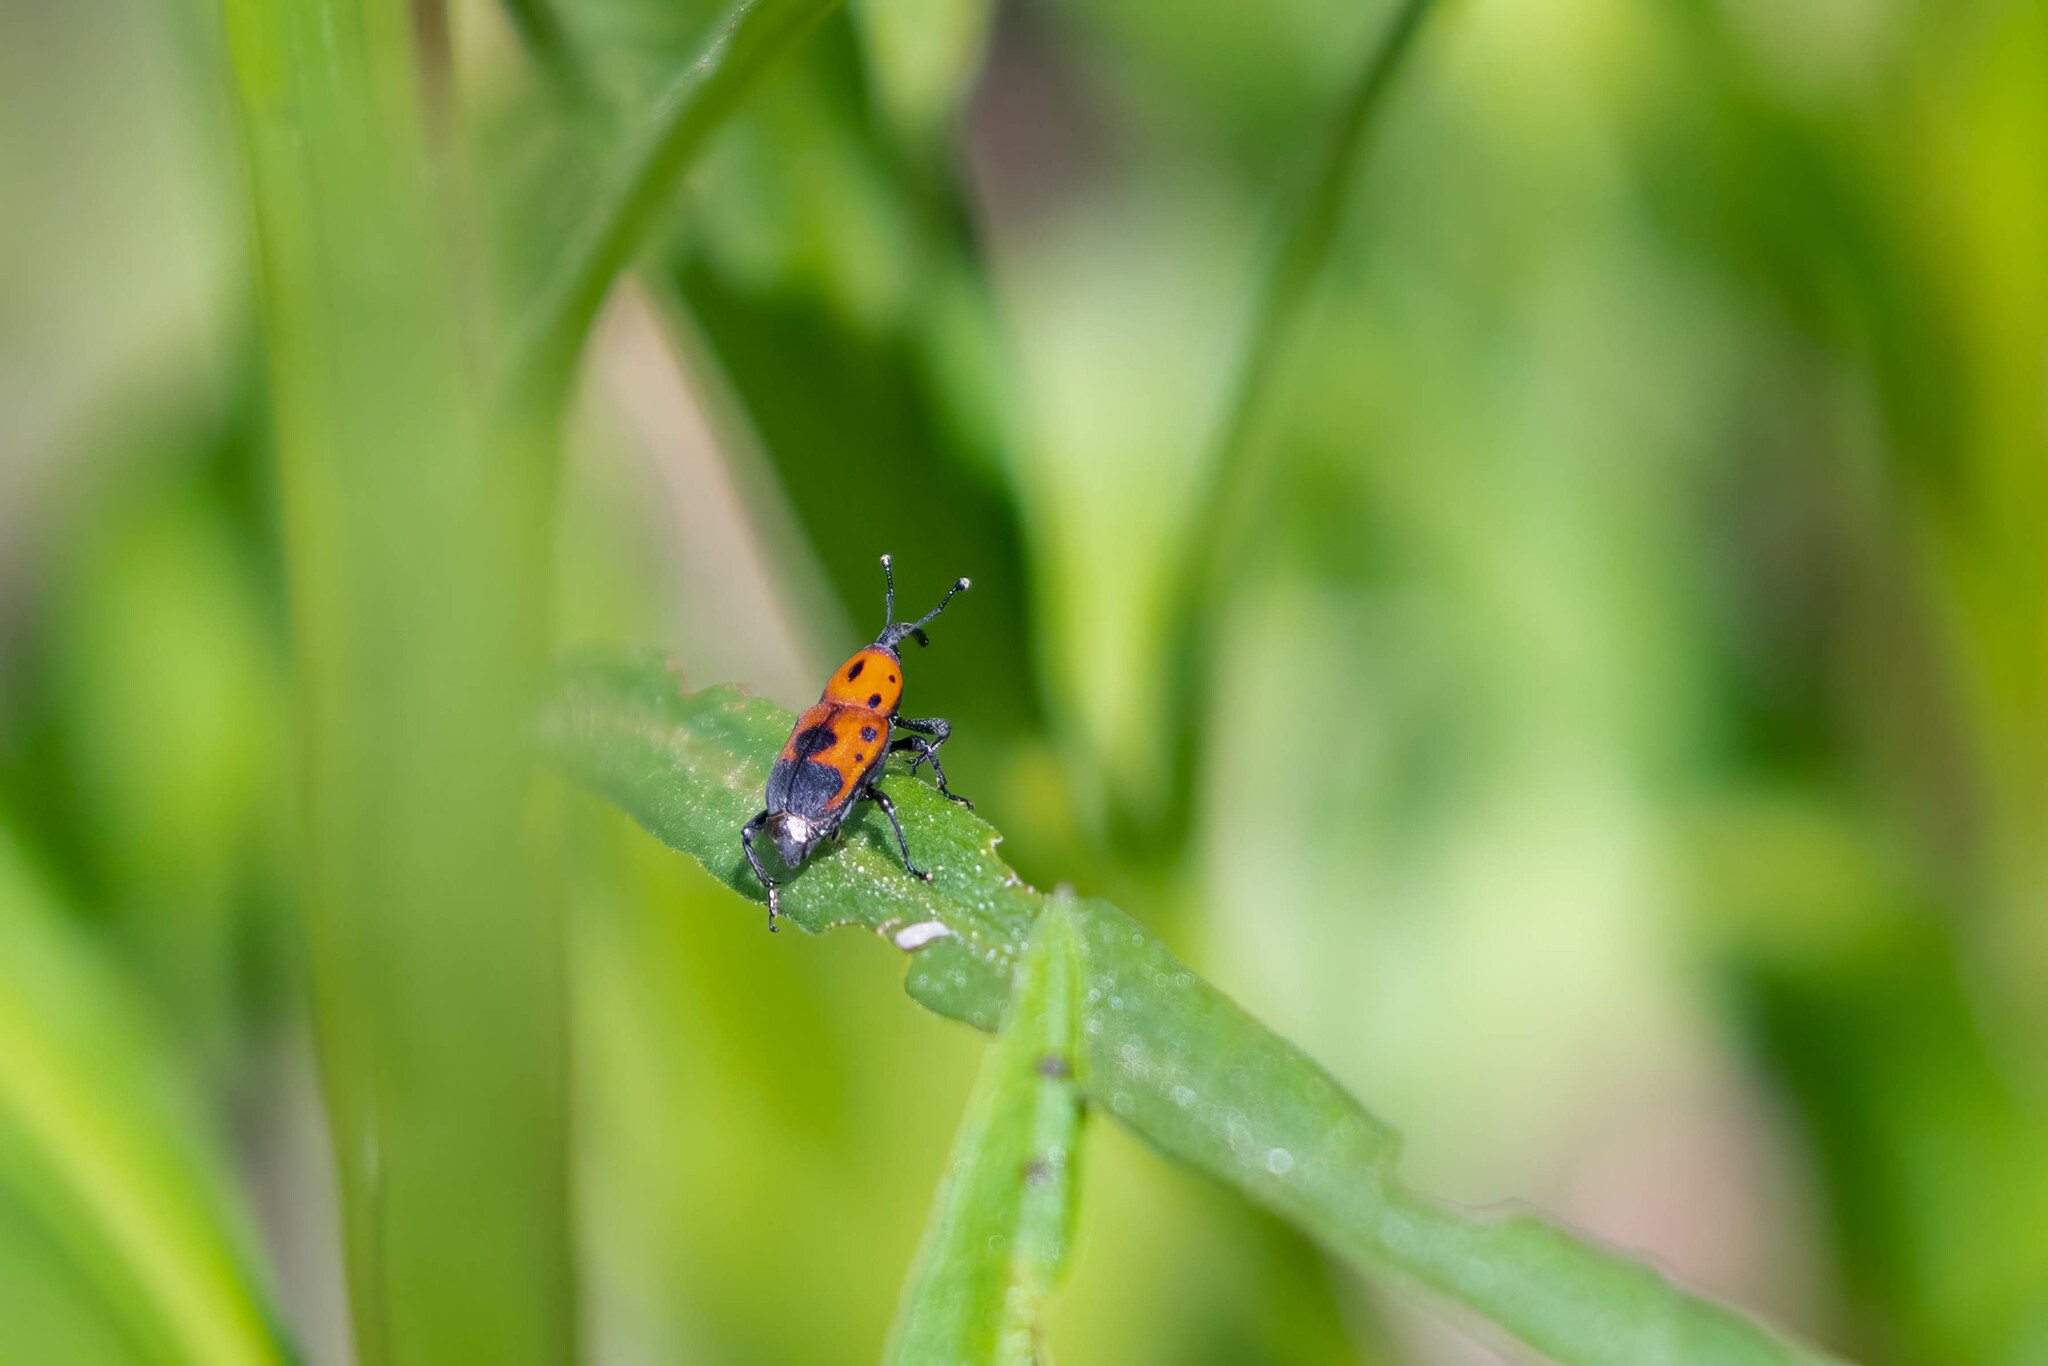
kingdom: Animalia
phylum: Arthropoda
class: Insecta
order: Coleoptera
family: Dryophthoridae
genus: Rhodobaenus
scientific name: Rhodobaenus quinquepunctatus
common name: Cocklebur weevil
